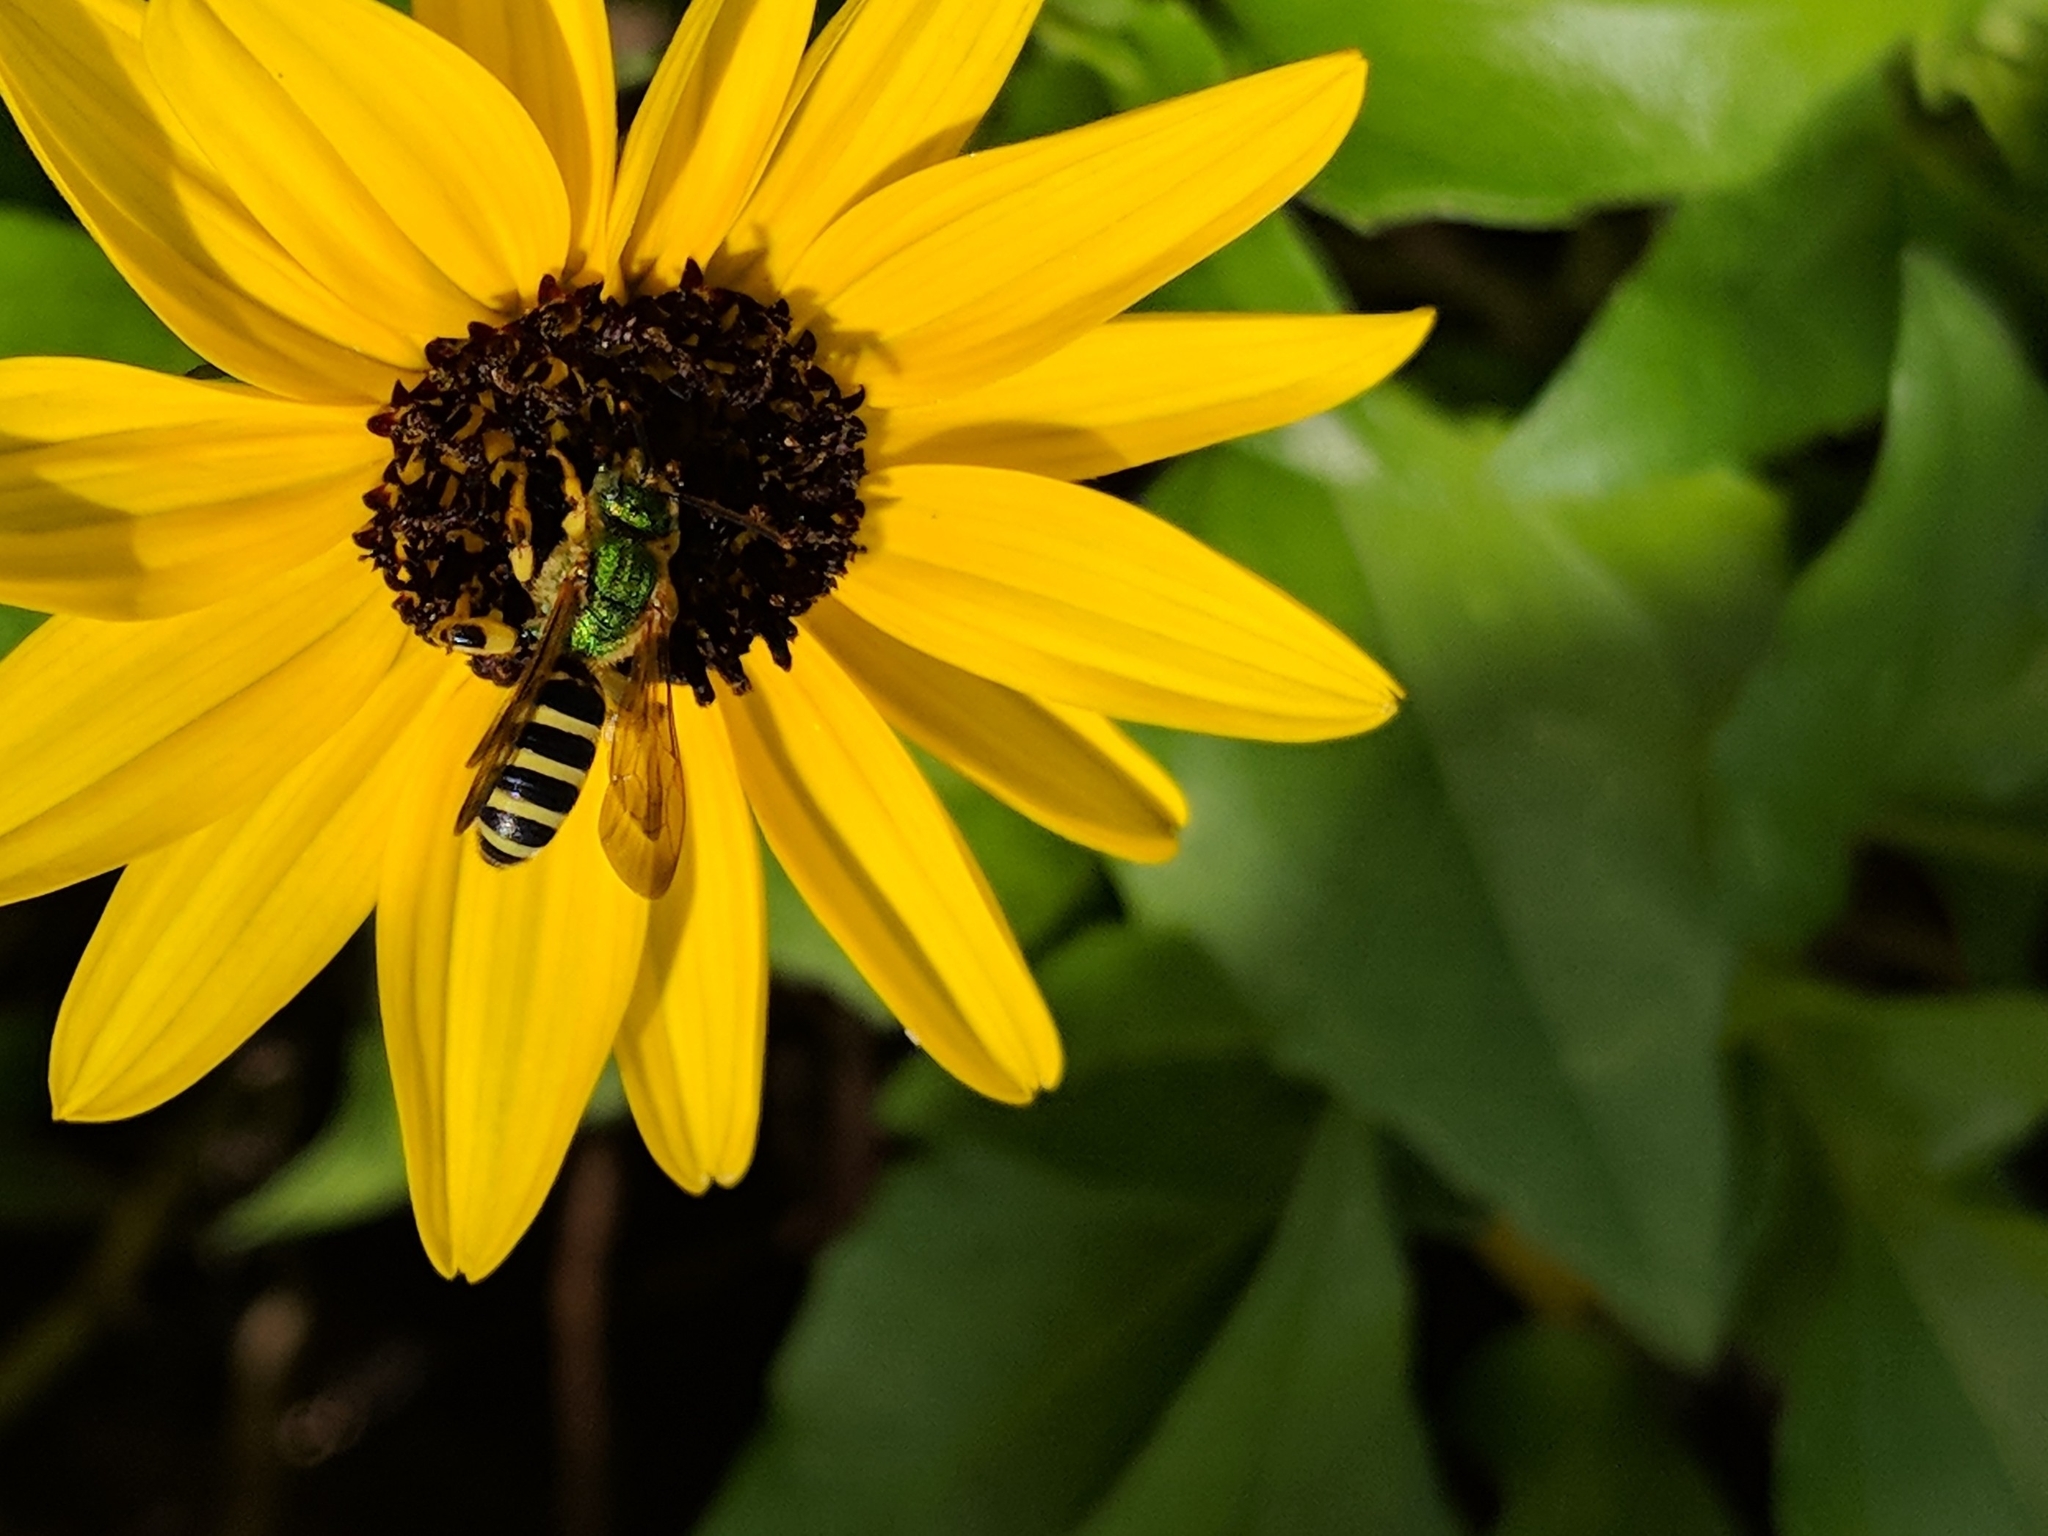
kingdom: Animalia
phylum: Arthropoda
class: Insecta
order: Hymenoptera
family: Halictidae
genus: Agapostemon
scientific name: Agapostemon splendens
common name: Brown-winged striped sweat bee
